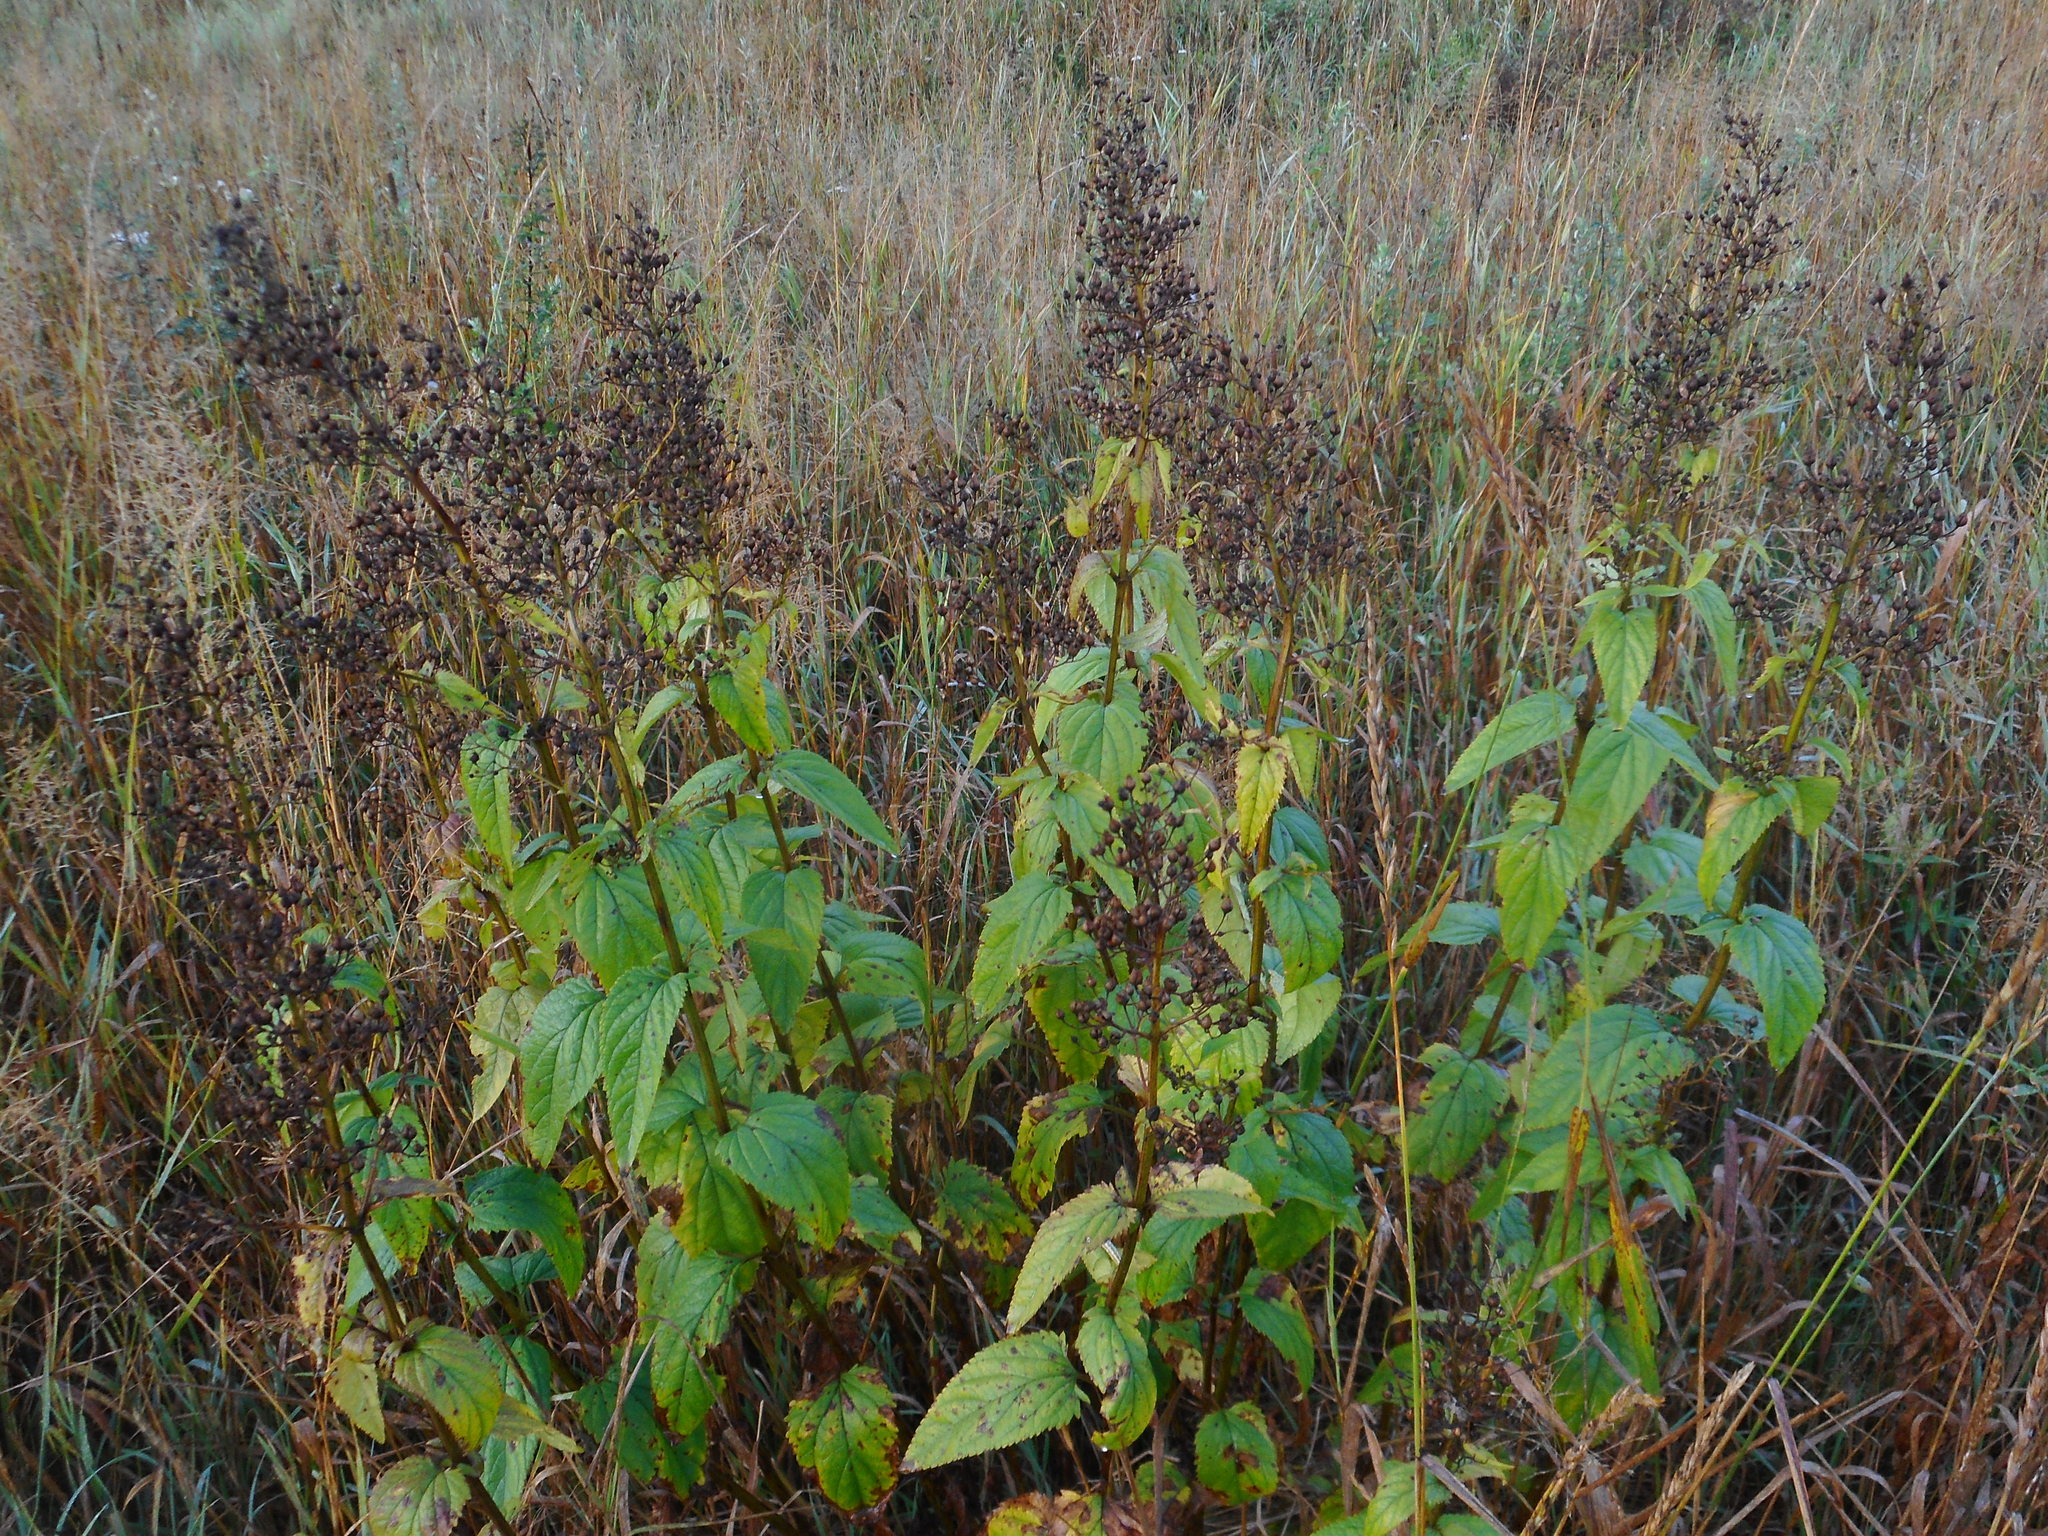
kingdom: Plantae
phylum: Tracheophyta
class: Magnoliopsida
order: Lamiales
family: Scrophulariaceae
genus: Scrophularia
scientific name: Scrophularia nodosa
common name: Common figwort
